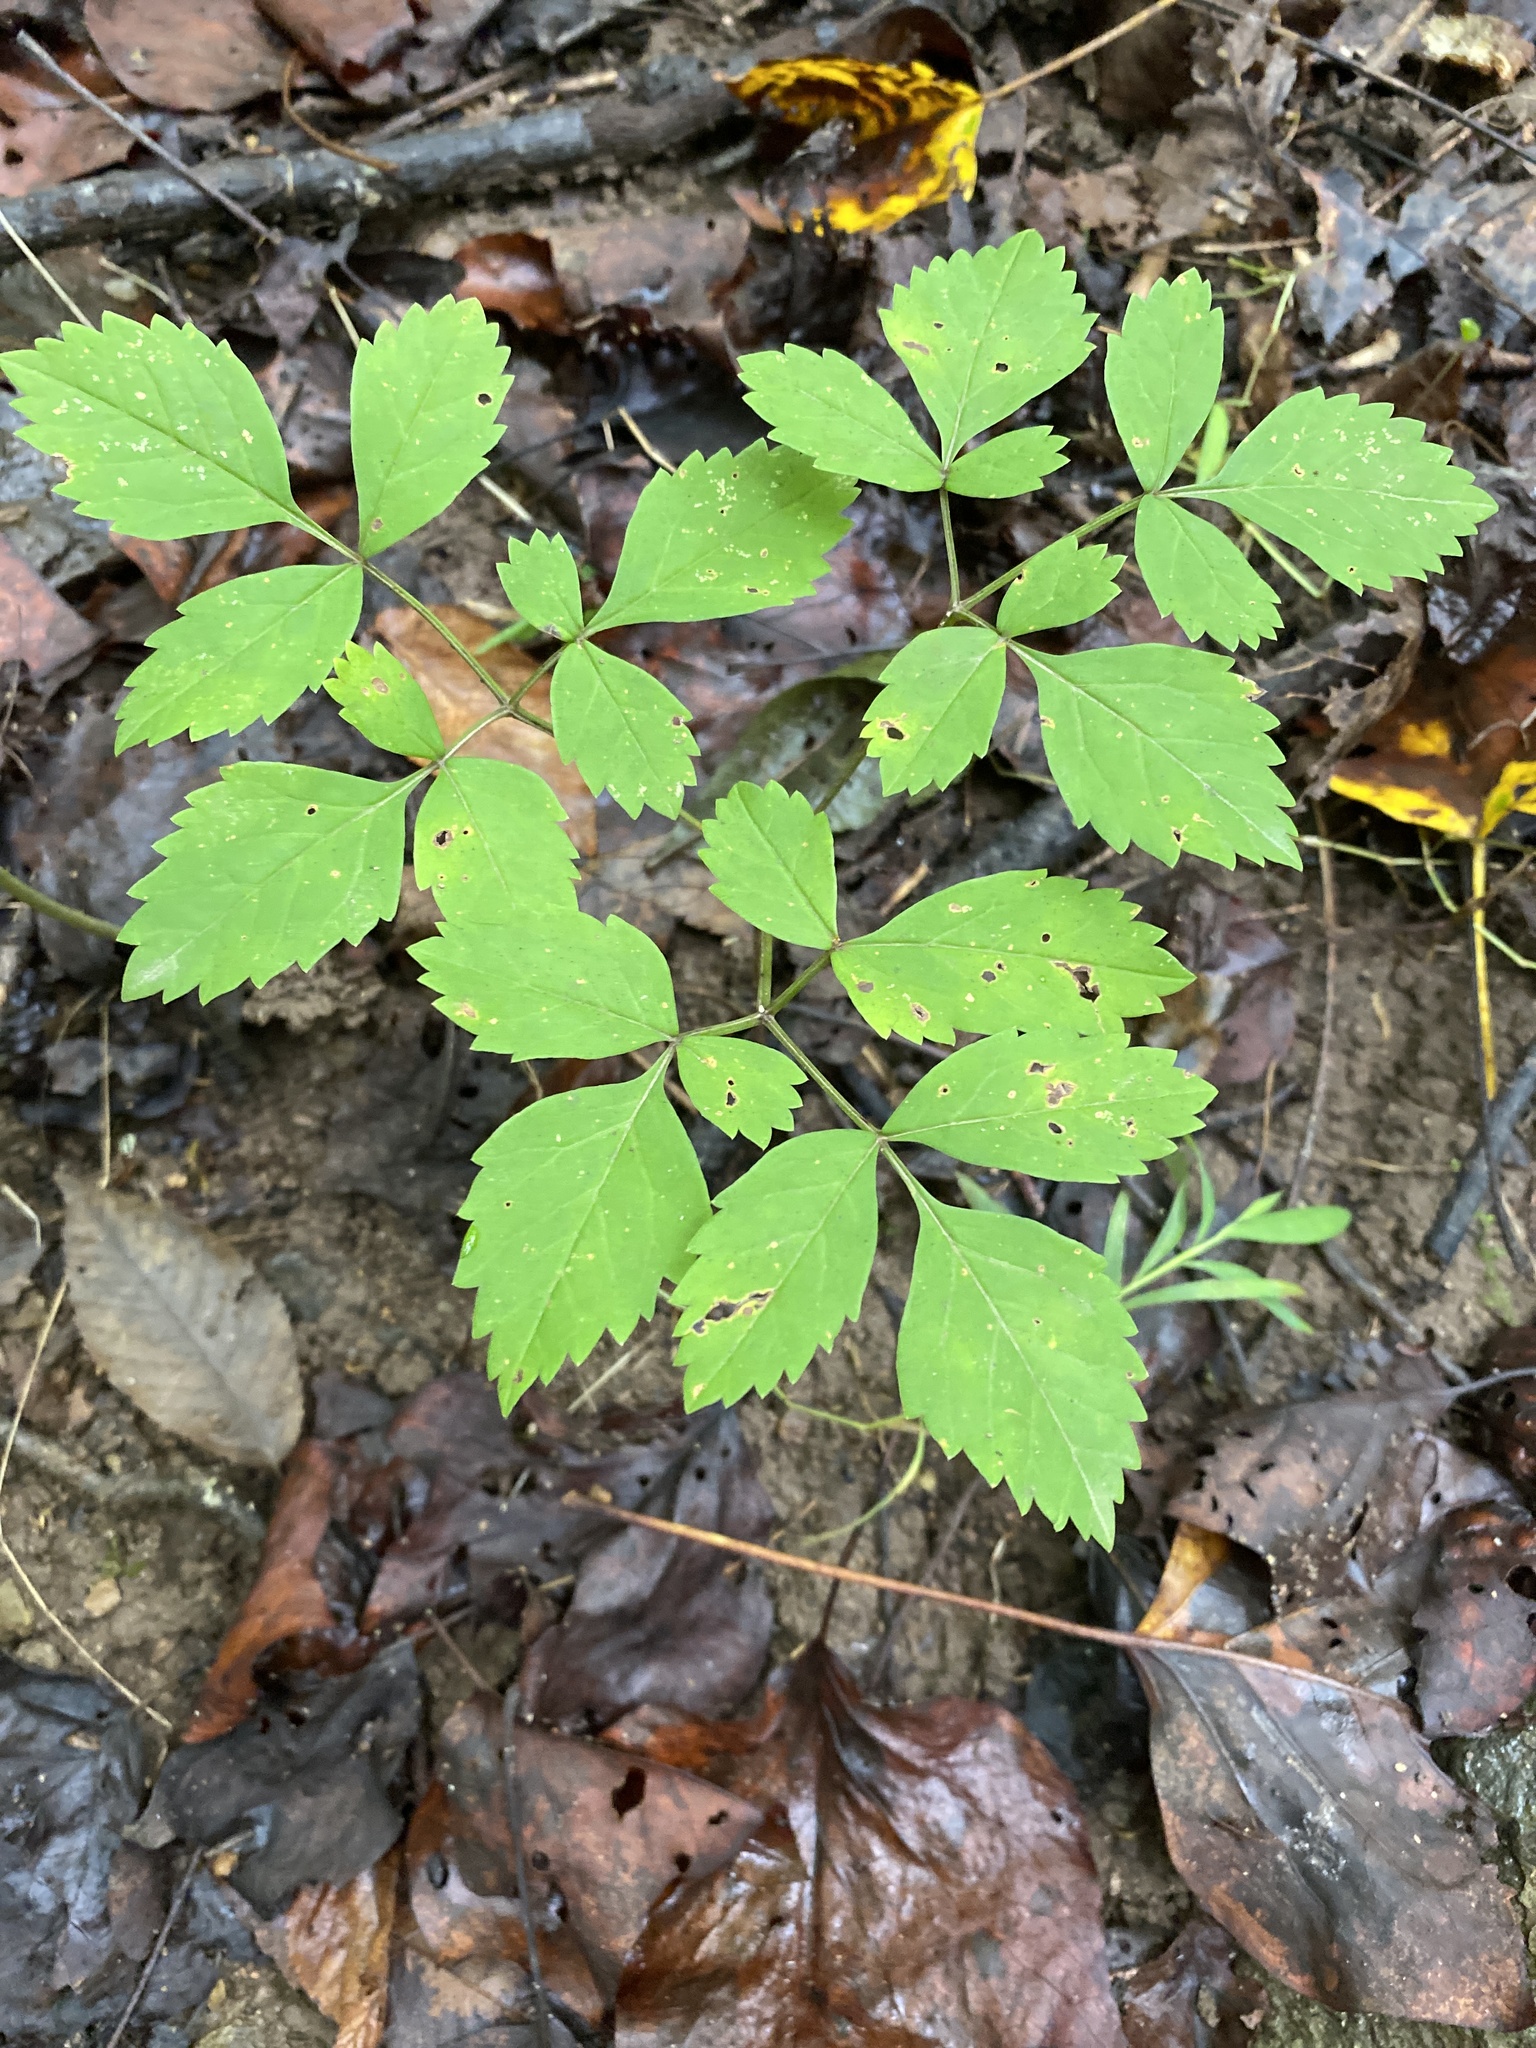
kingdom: Plantae
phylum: Tracheophyta
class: Magnoliopsida
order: Apiales
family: Apiaceae
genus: Ligusticum
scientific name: Ligusticum canadense
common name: American lovage
